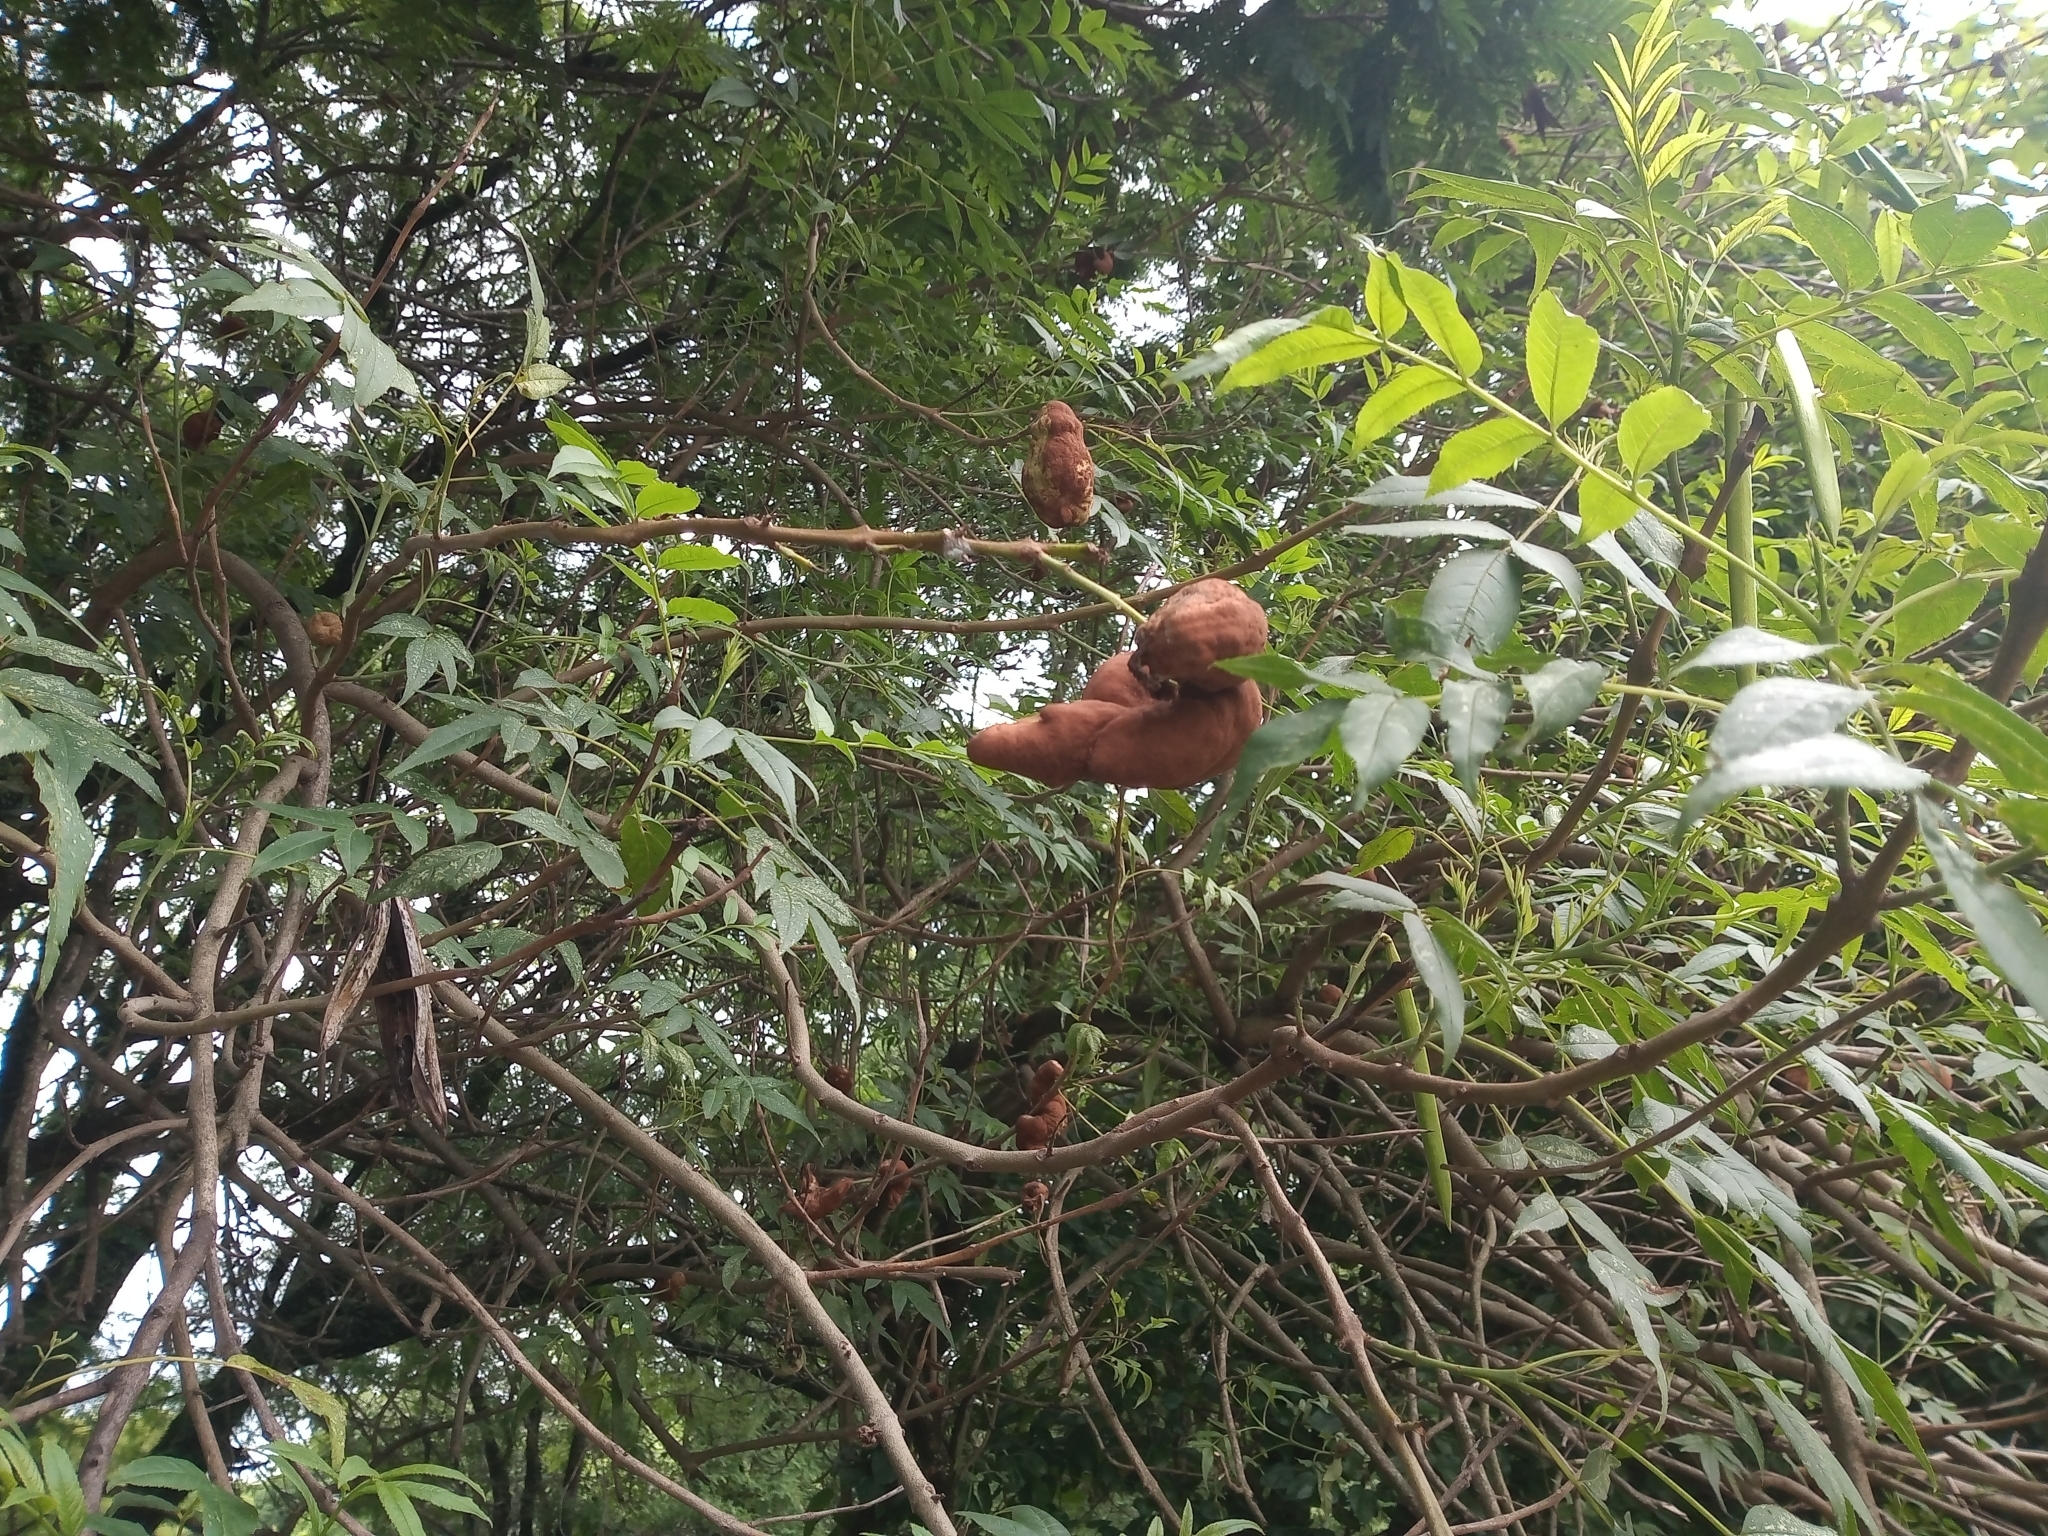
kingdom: Plantae
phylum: Tracheophyta
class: Magnoliopsida
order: Lamiales
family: Bignoniaceae
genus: Tecoma
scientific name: Tecoma stans
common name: Yellow trumpetbush
